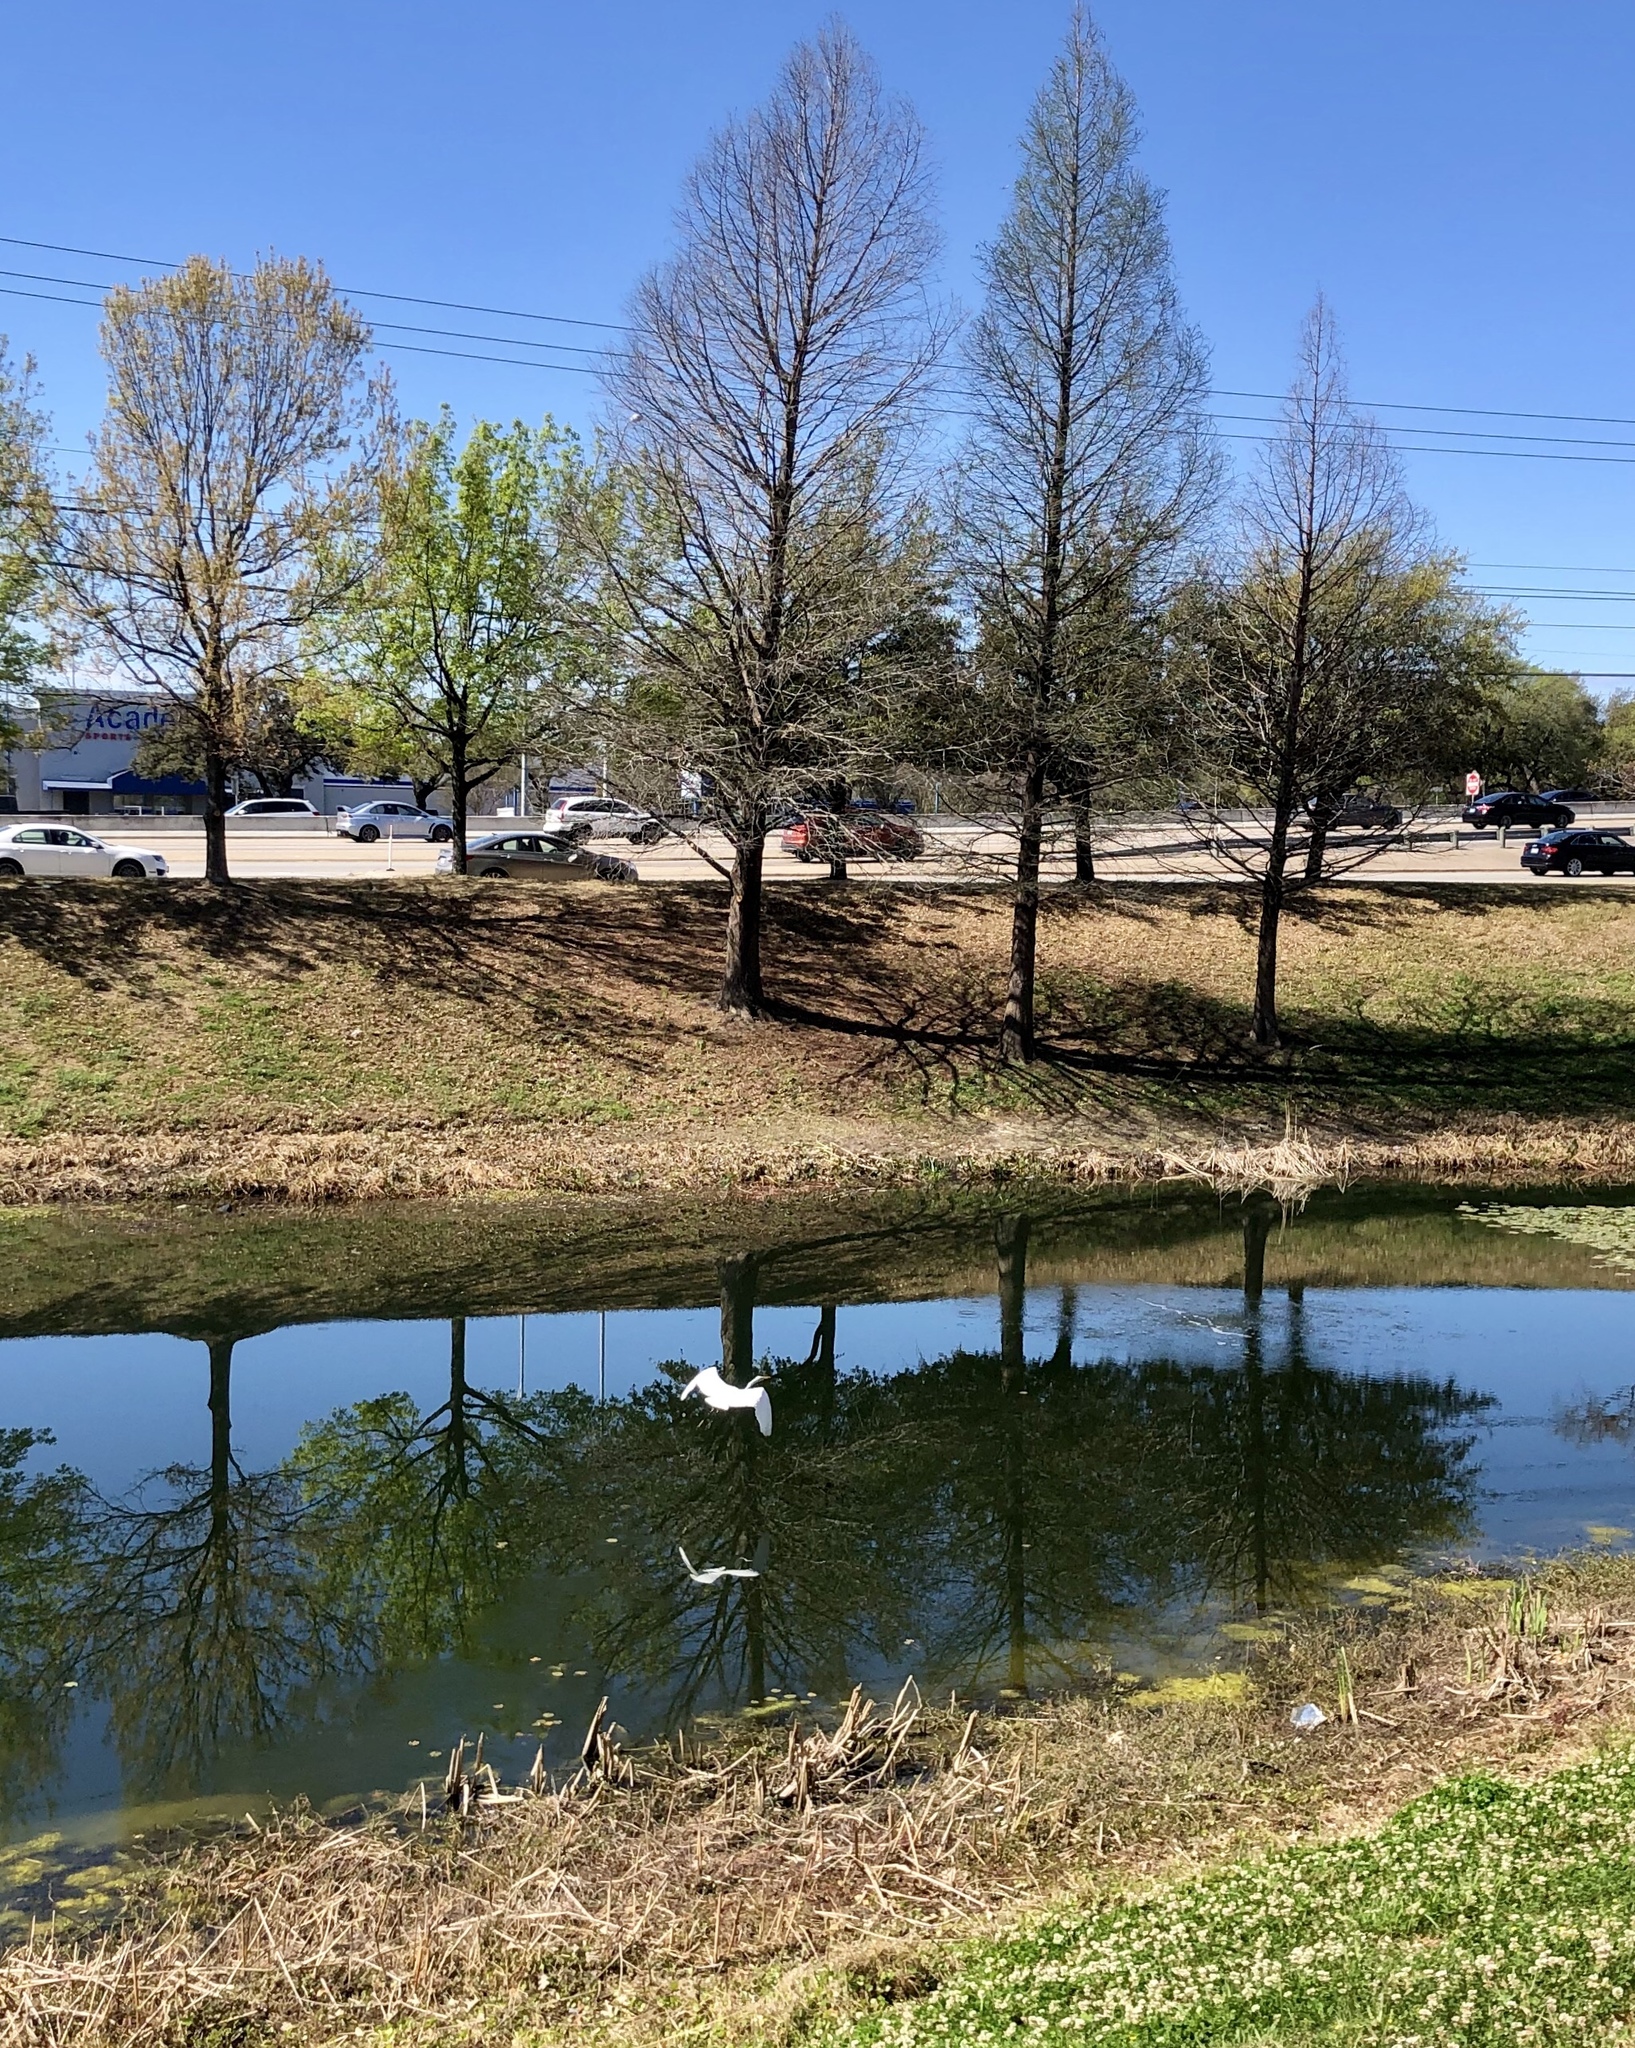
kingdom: Animalia
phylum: Chordata
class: Aves
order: Pelecaniformes
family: Ardeidae
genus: Ardea
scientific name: Ardea alba
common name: Great egret
